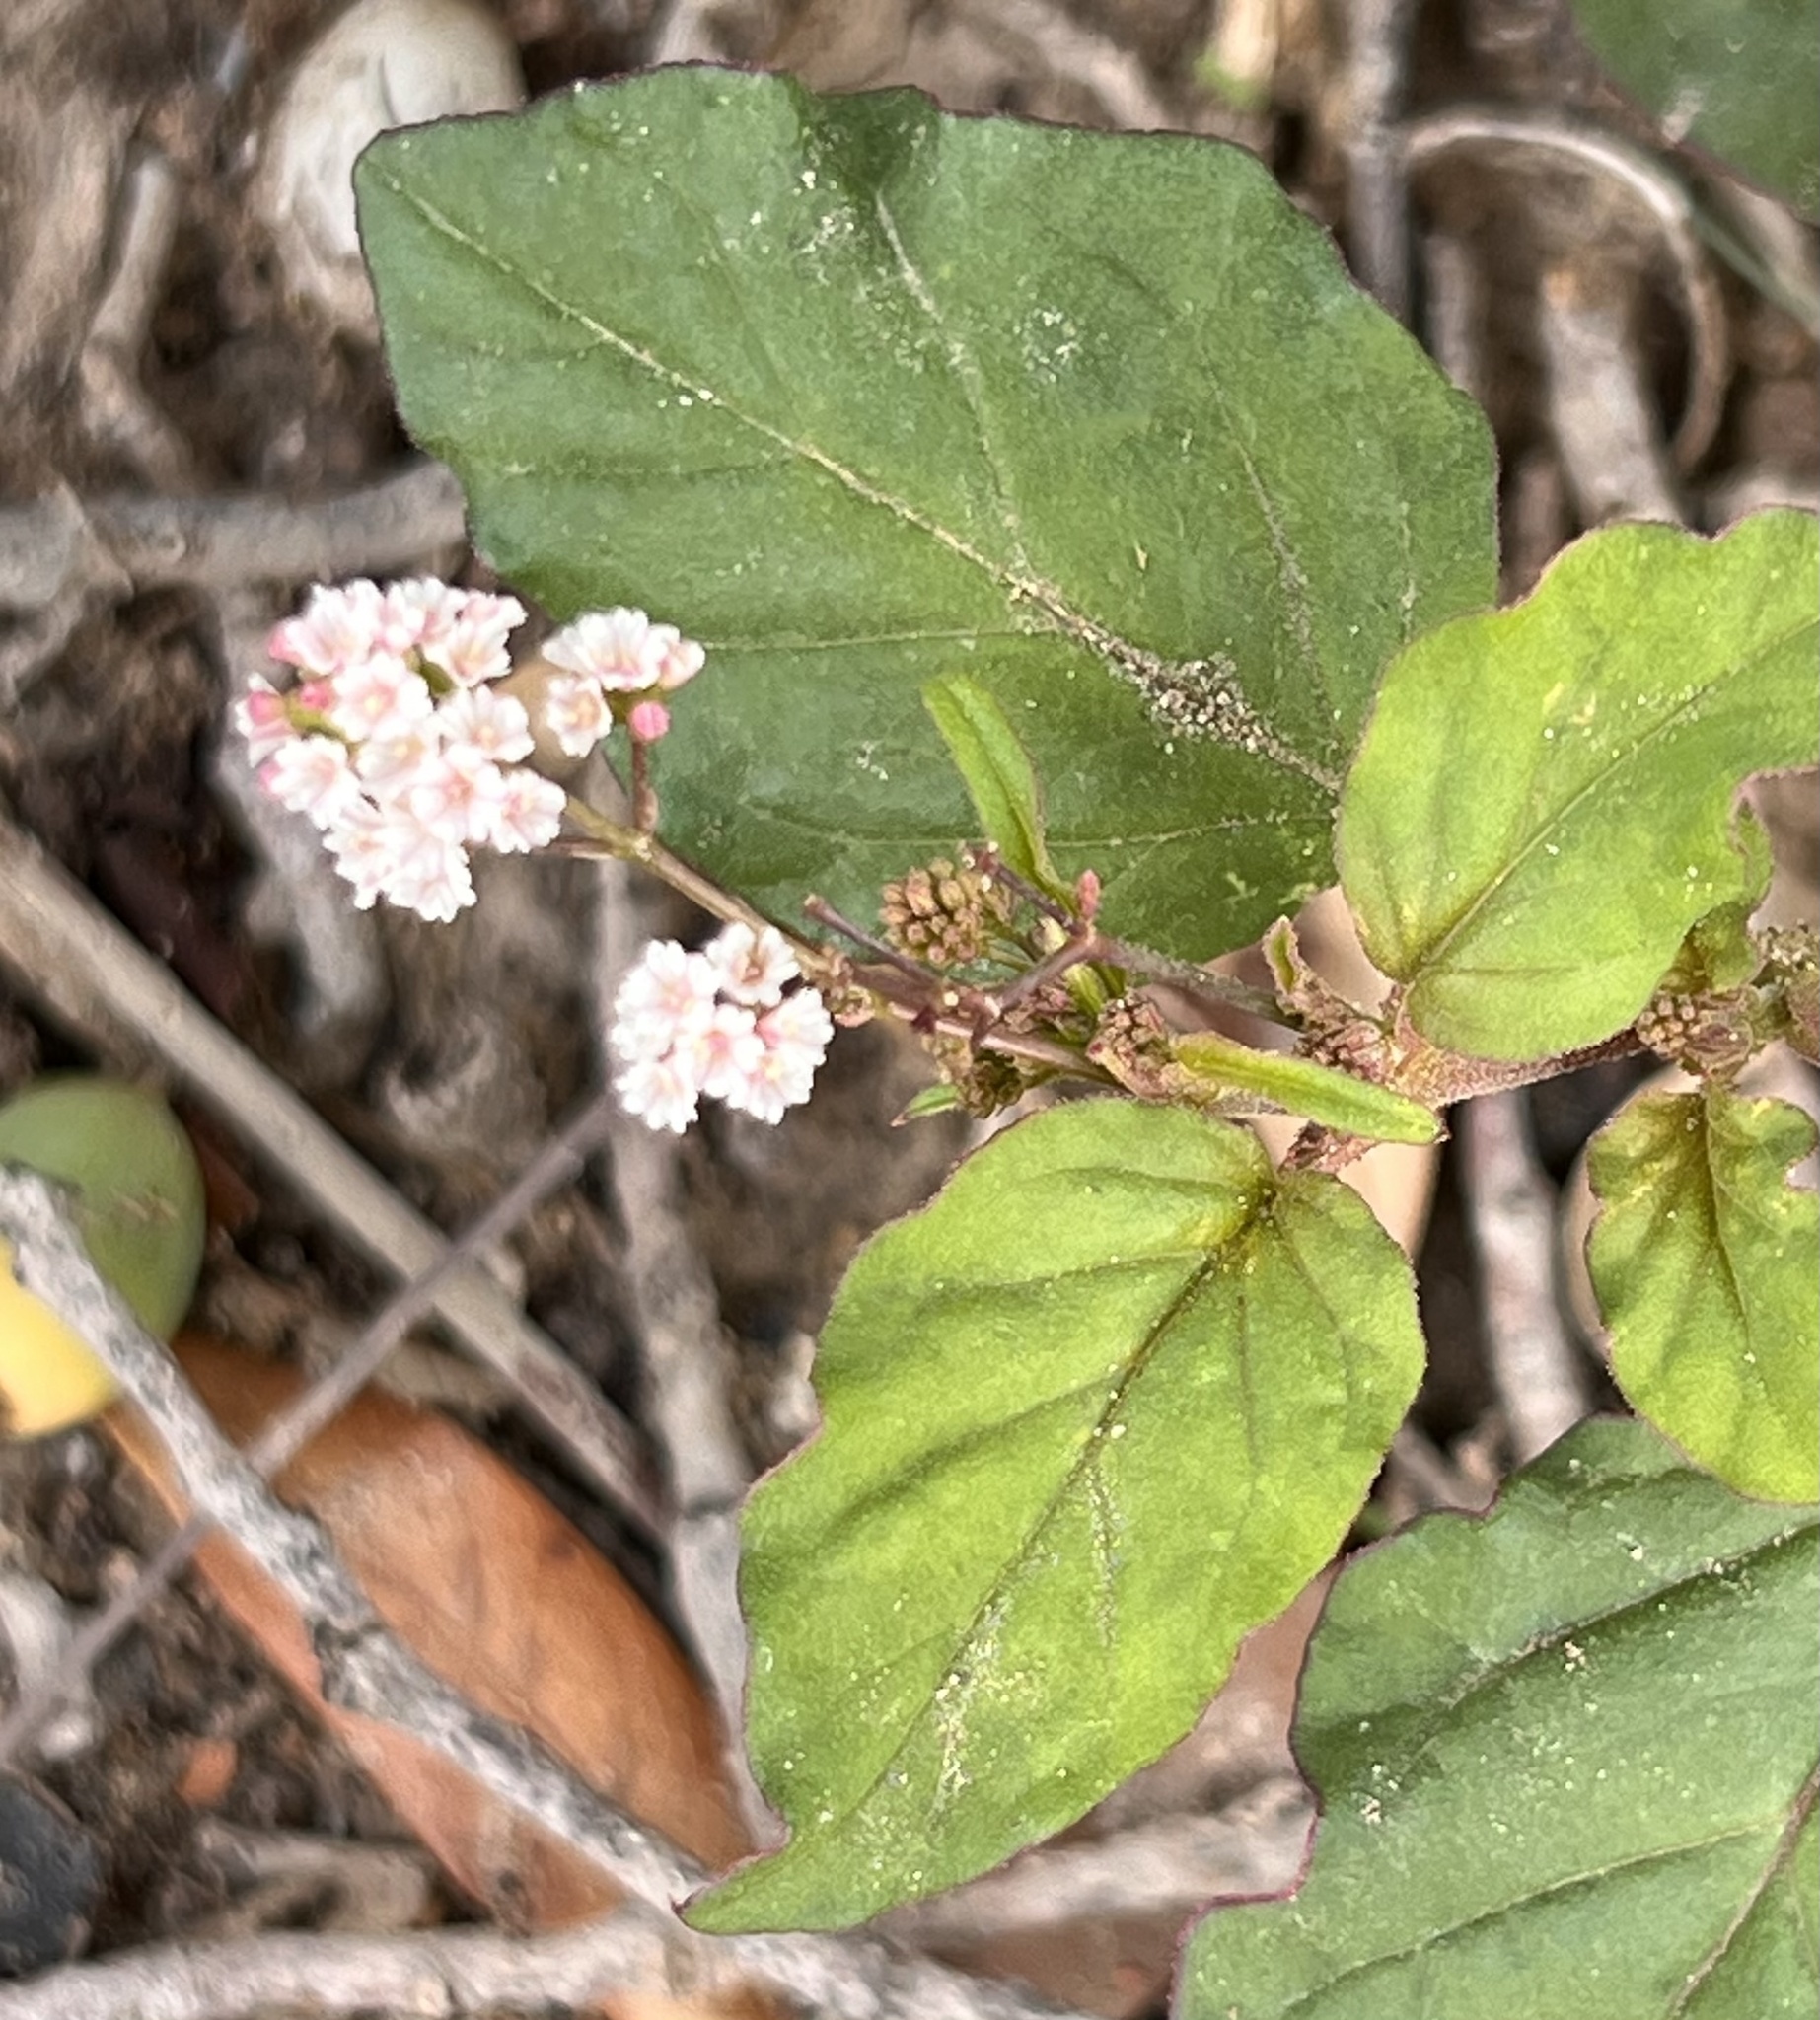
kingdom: Plantae
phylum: Tracheophyta
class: Magnoliopsida
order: Caryophyllales
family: Nyctaginaceae
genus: Boerhavia
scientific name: Boerhavia erecta
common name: Erect spiderling
